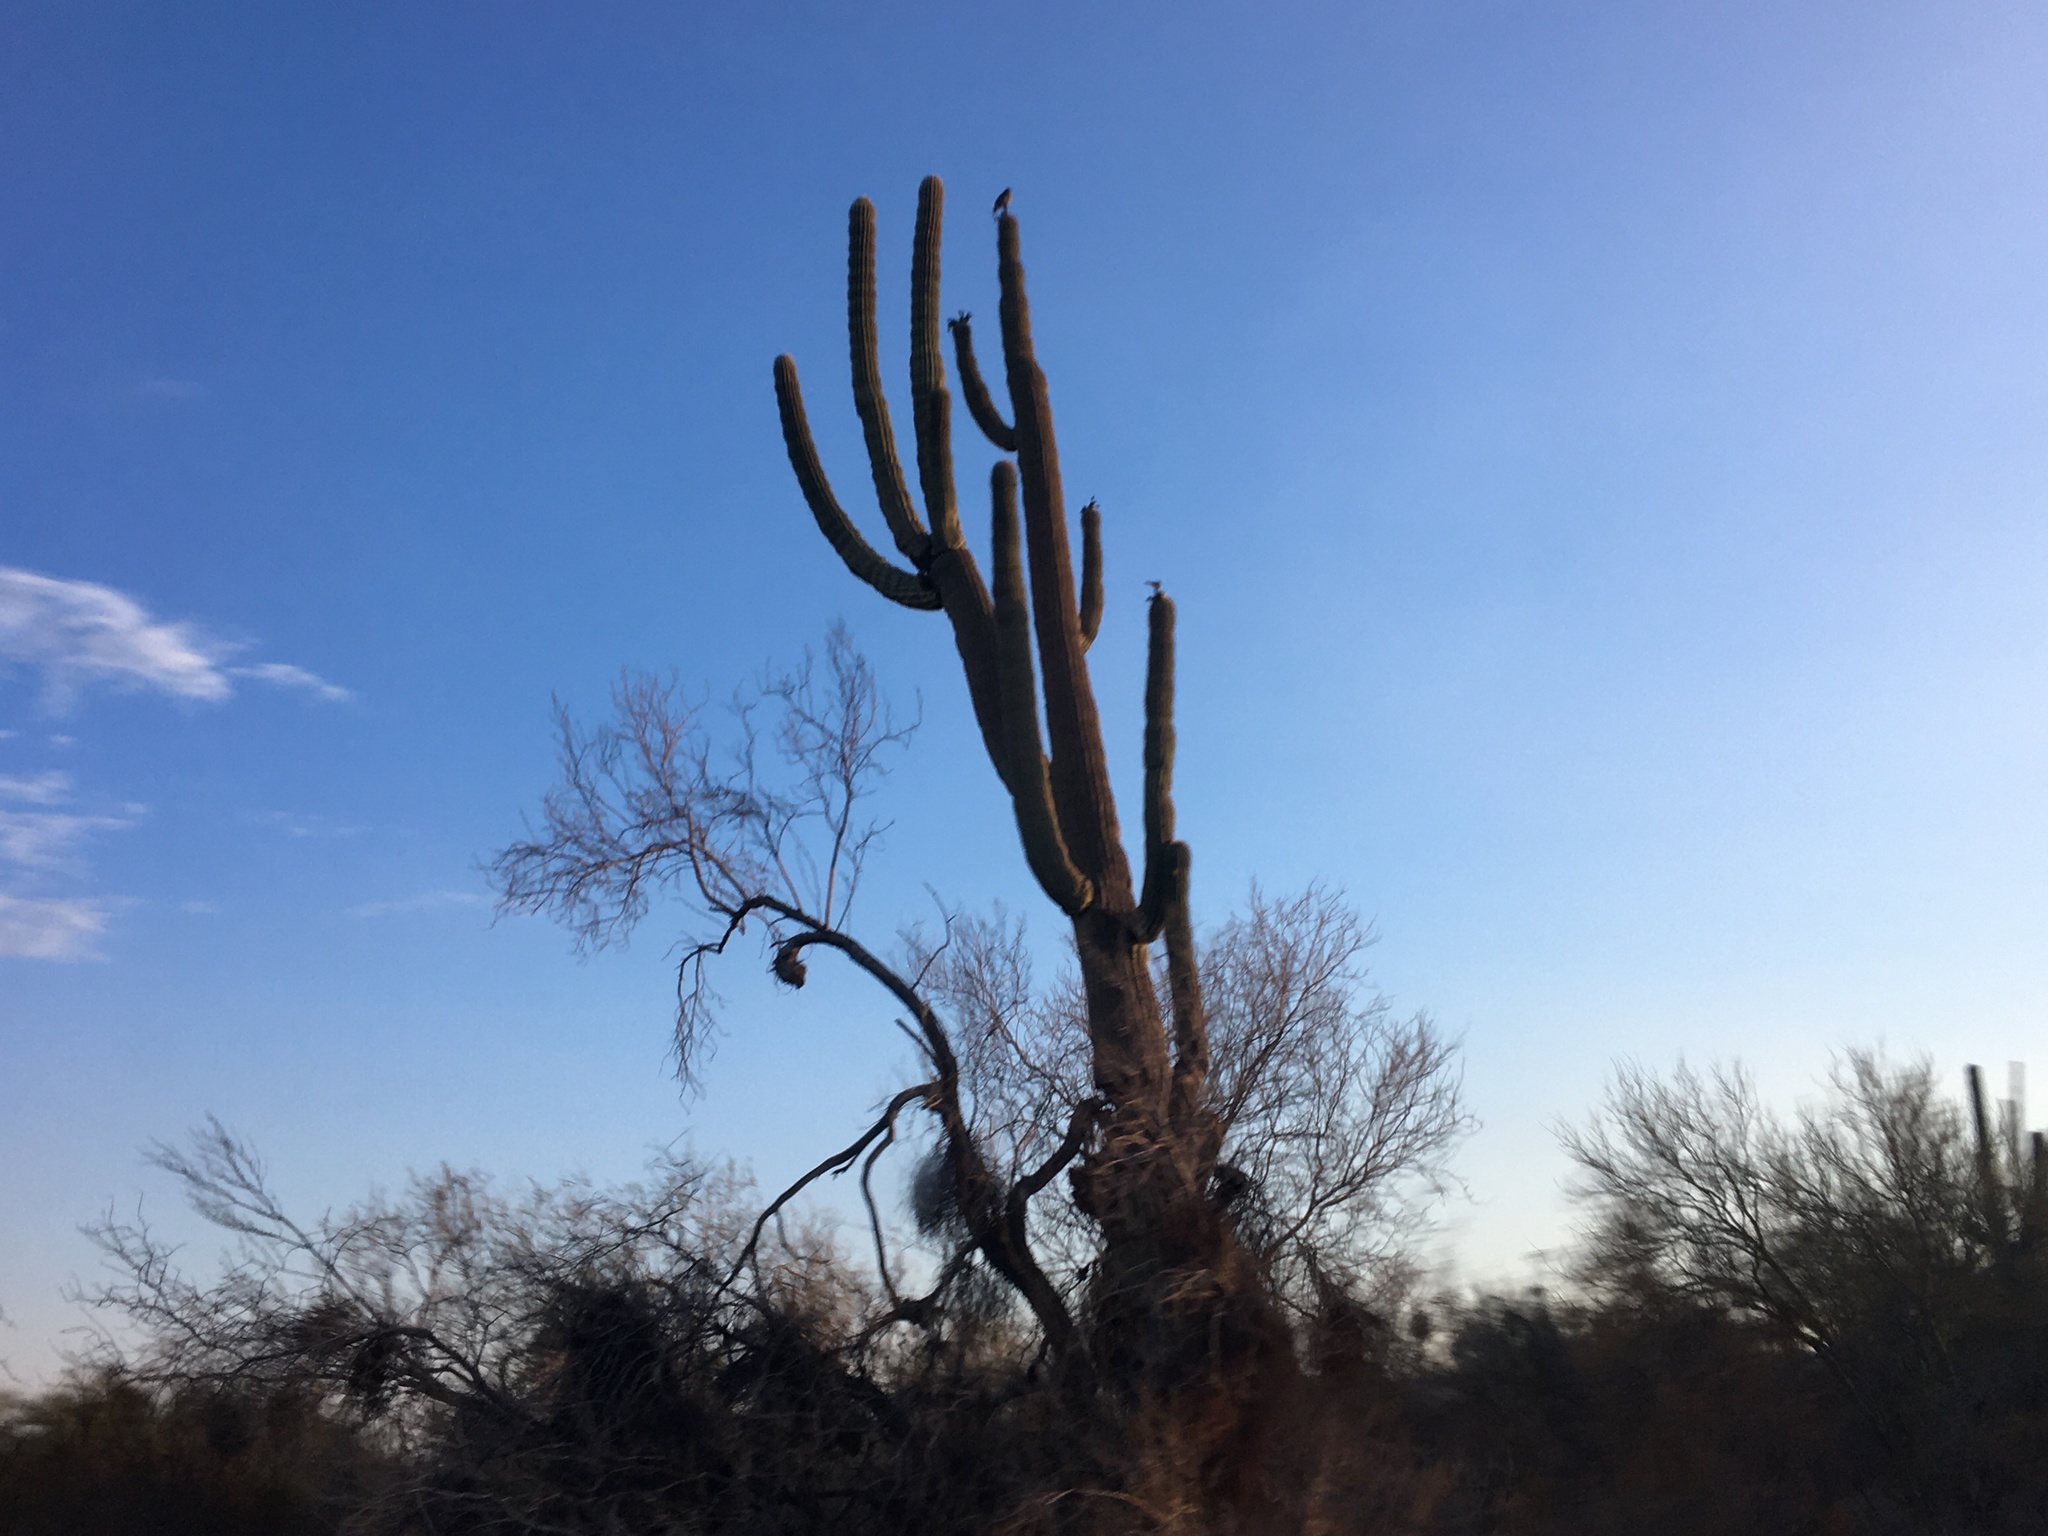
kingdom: Plantae
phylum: Tracheophyta
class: Magnoliopsida
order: Caryophyllales
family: Cactaceae
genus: Carnegiea
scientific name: Carnegiea gigantea
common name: Saguaro
